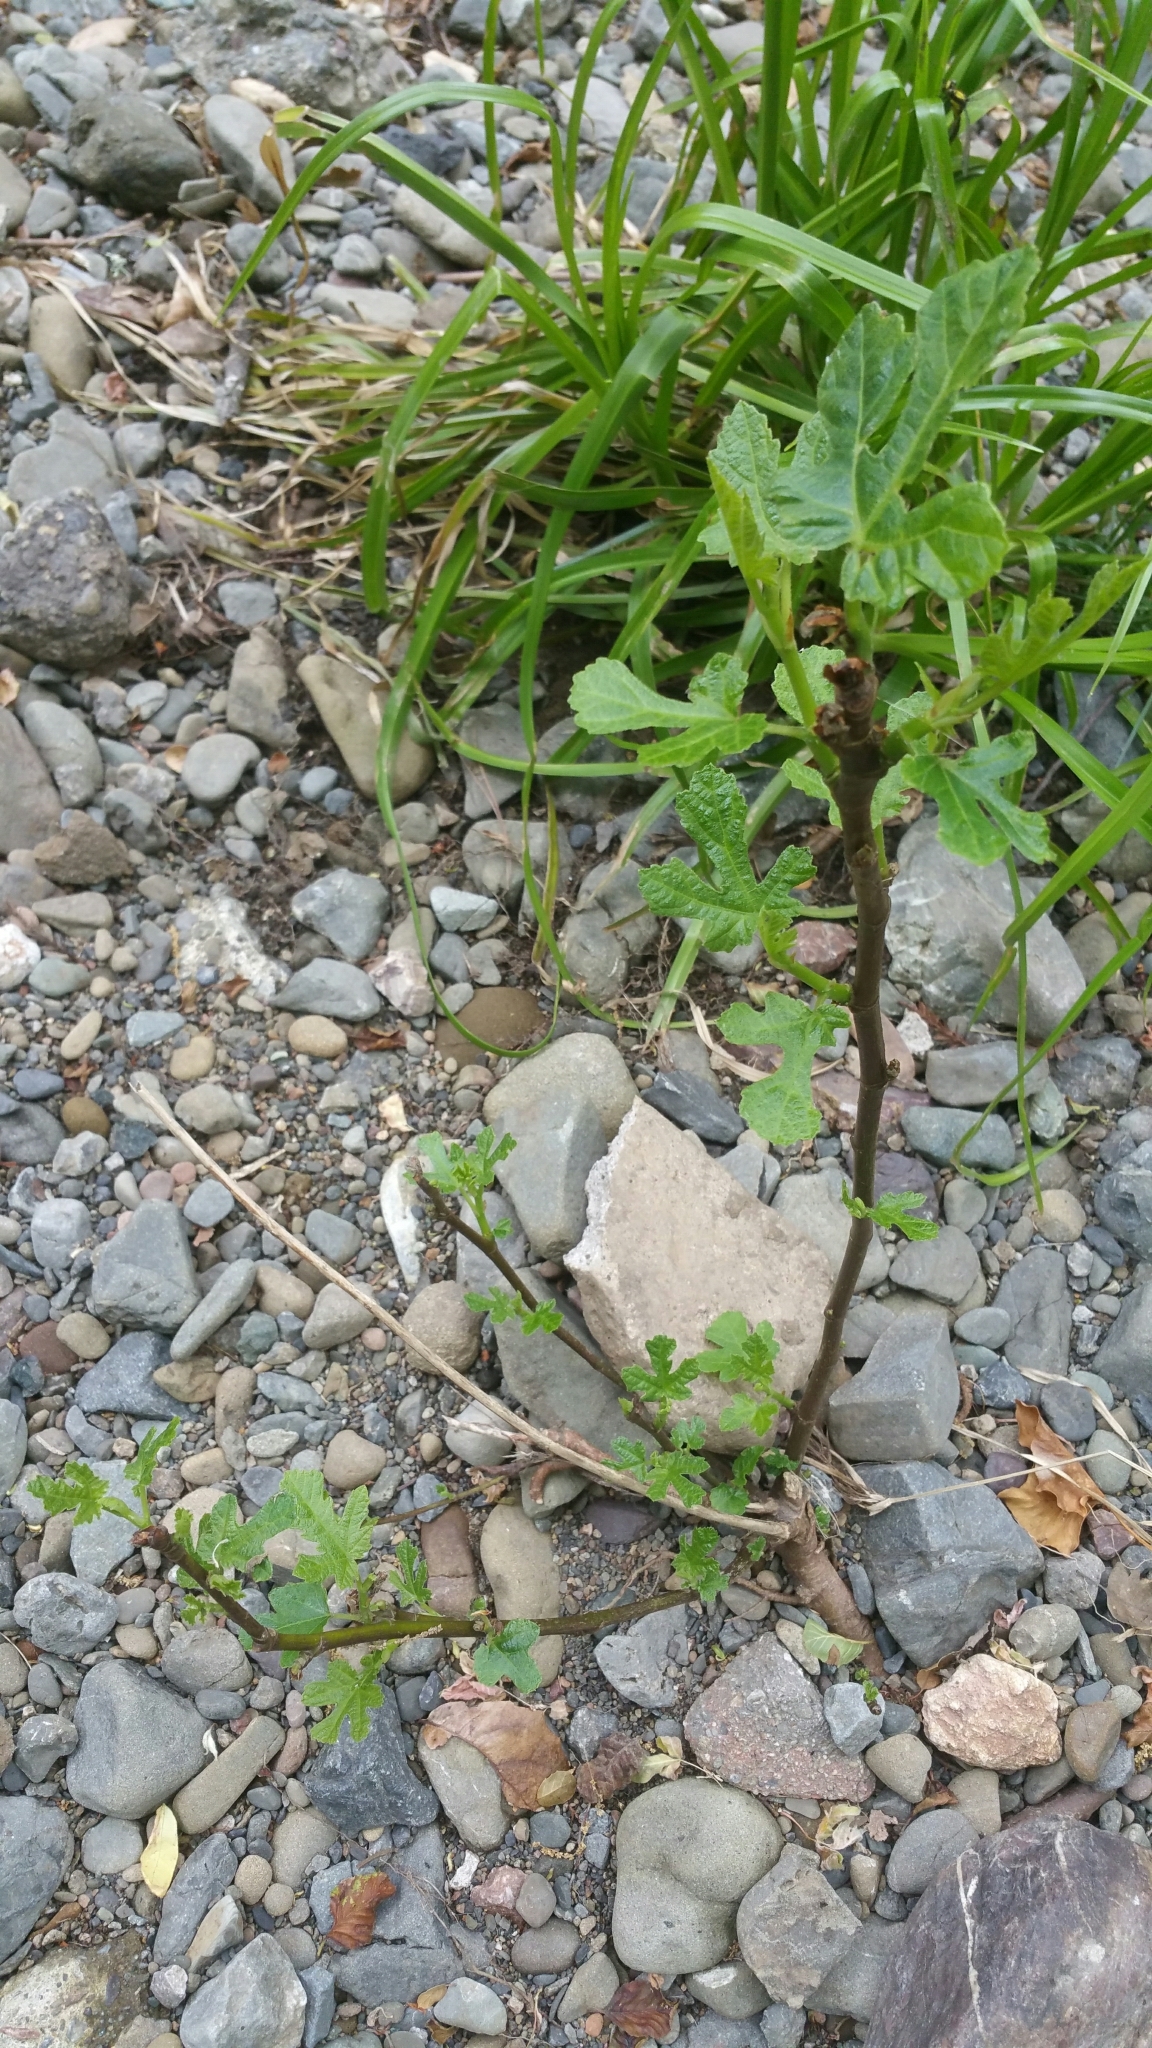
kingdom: Plantae
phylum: Tracheophyta
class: Magnoliopsida
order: Rosales
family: Moraceae
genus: Ficus
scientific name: Ficus carica
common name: Fig
